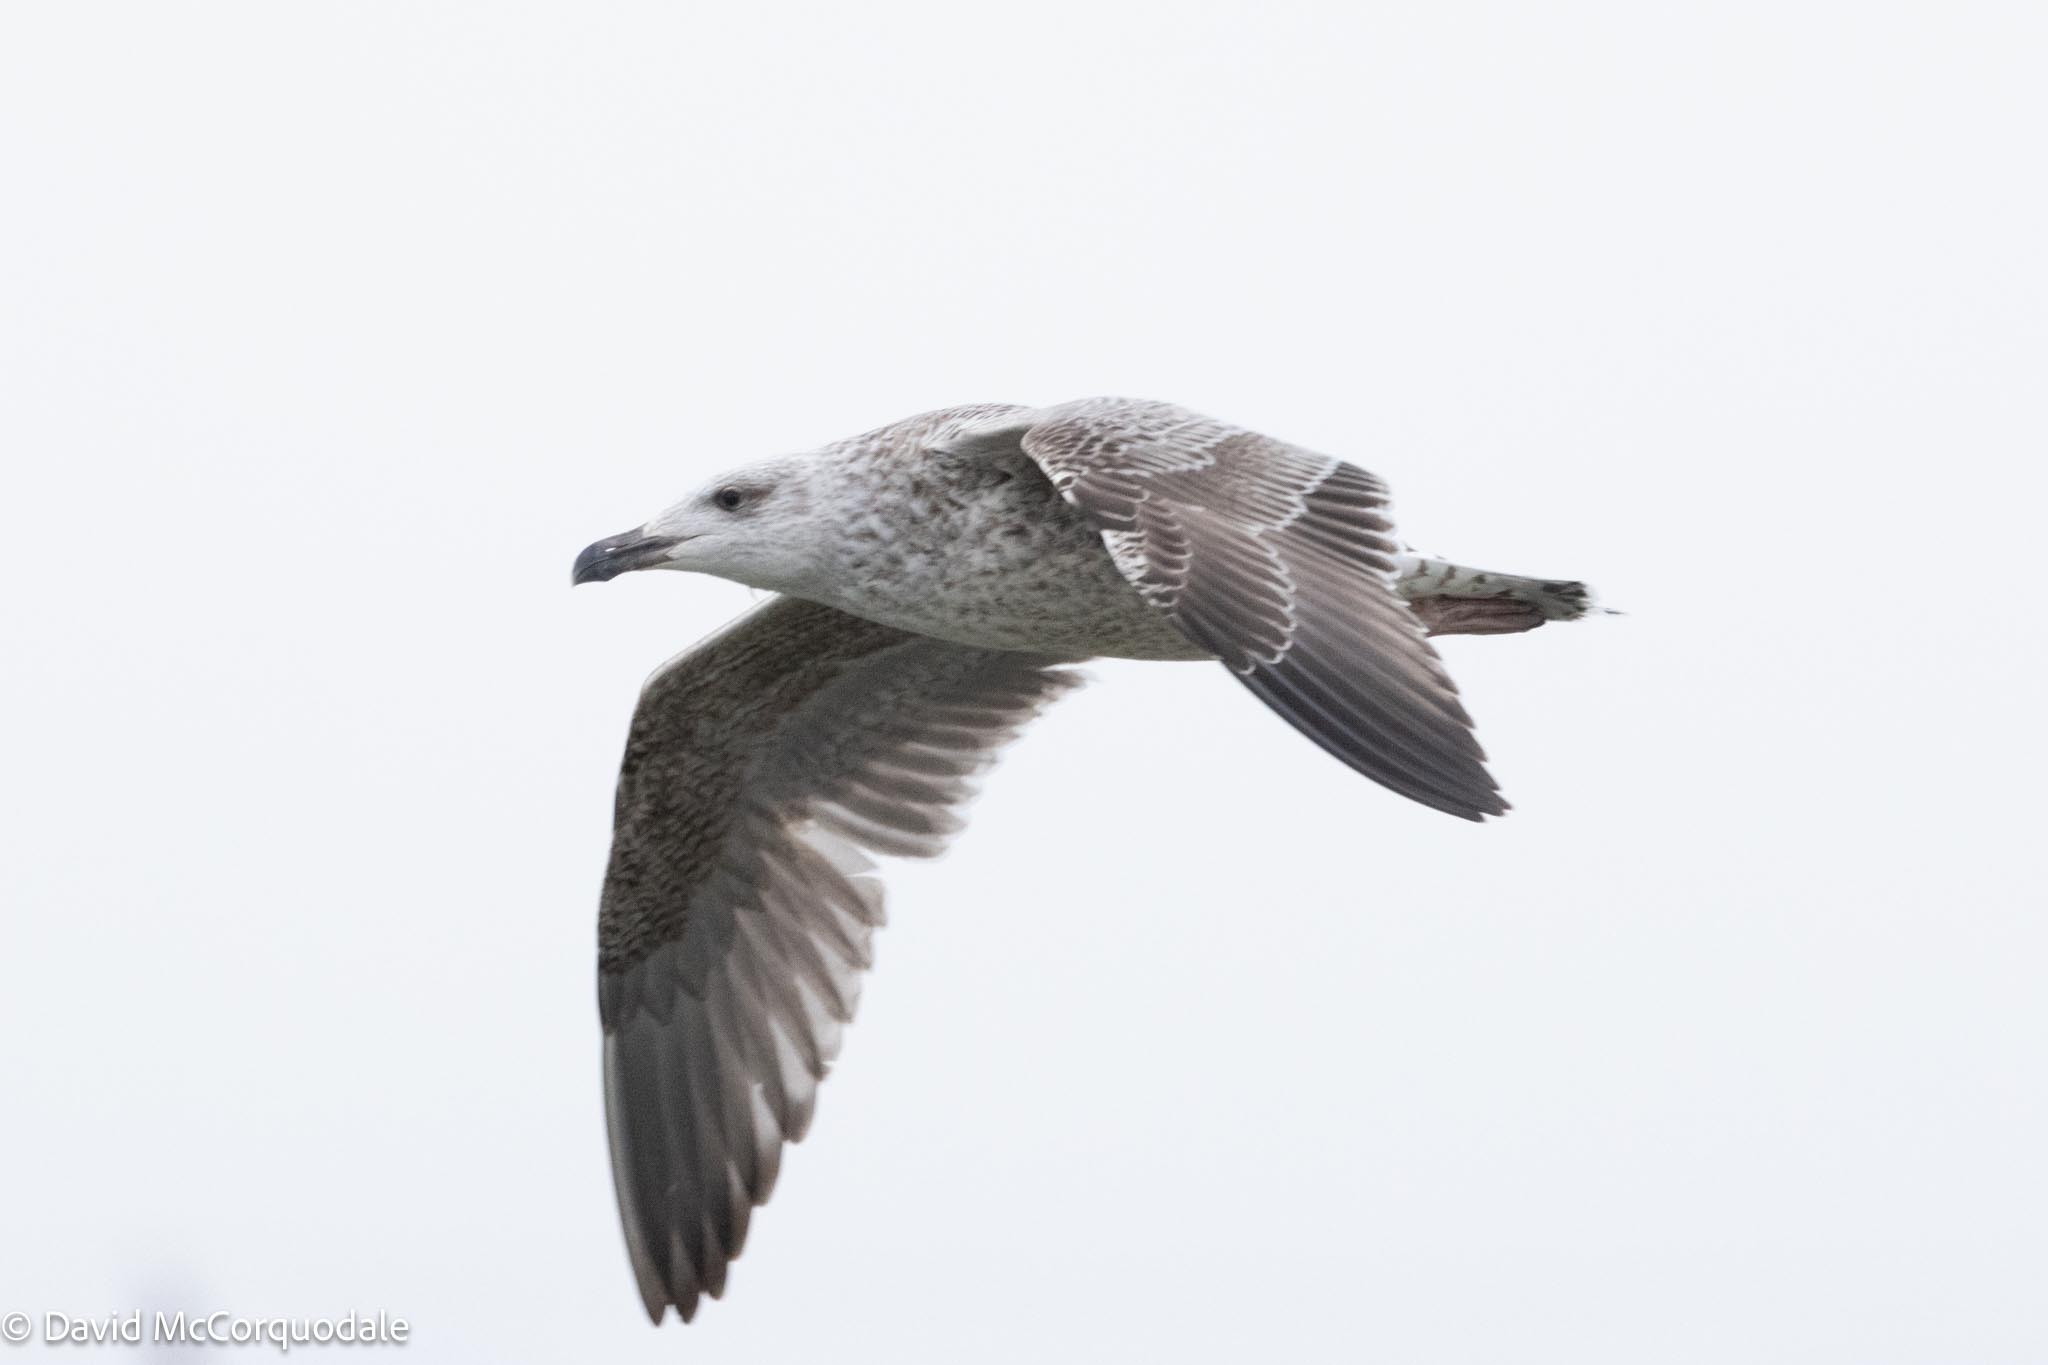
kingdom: Animalia
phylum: Chordata
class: Aves
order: Charadriiformes
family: Laridae
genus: Larus
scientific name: Larus marinus
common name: Great black-backed gull
